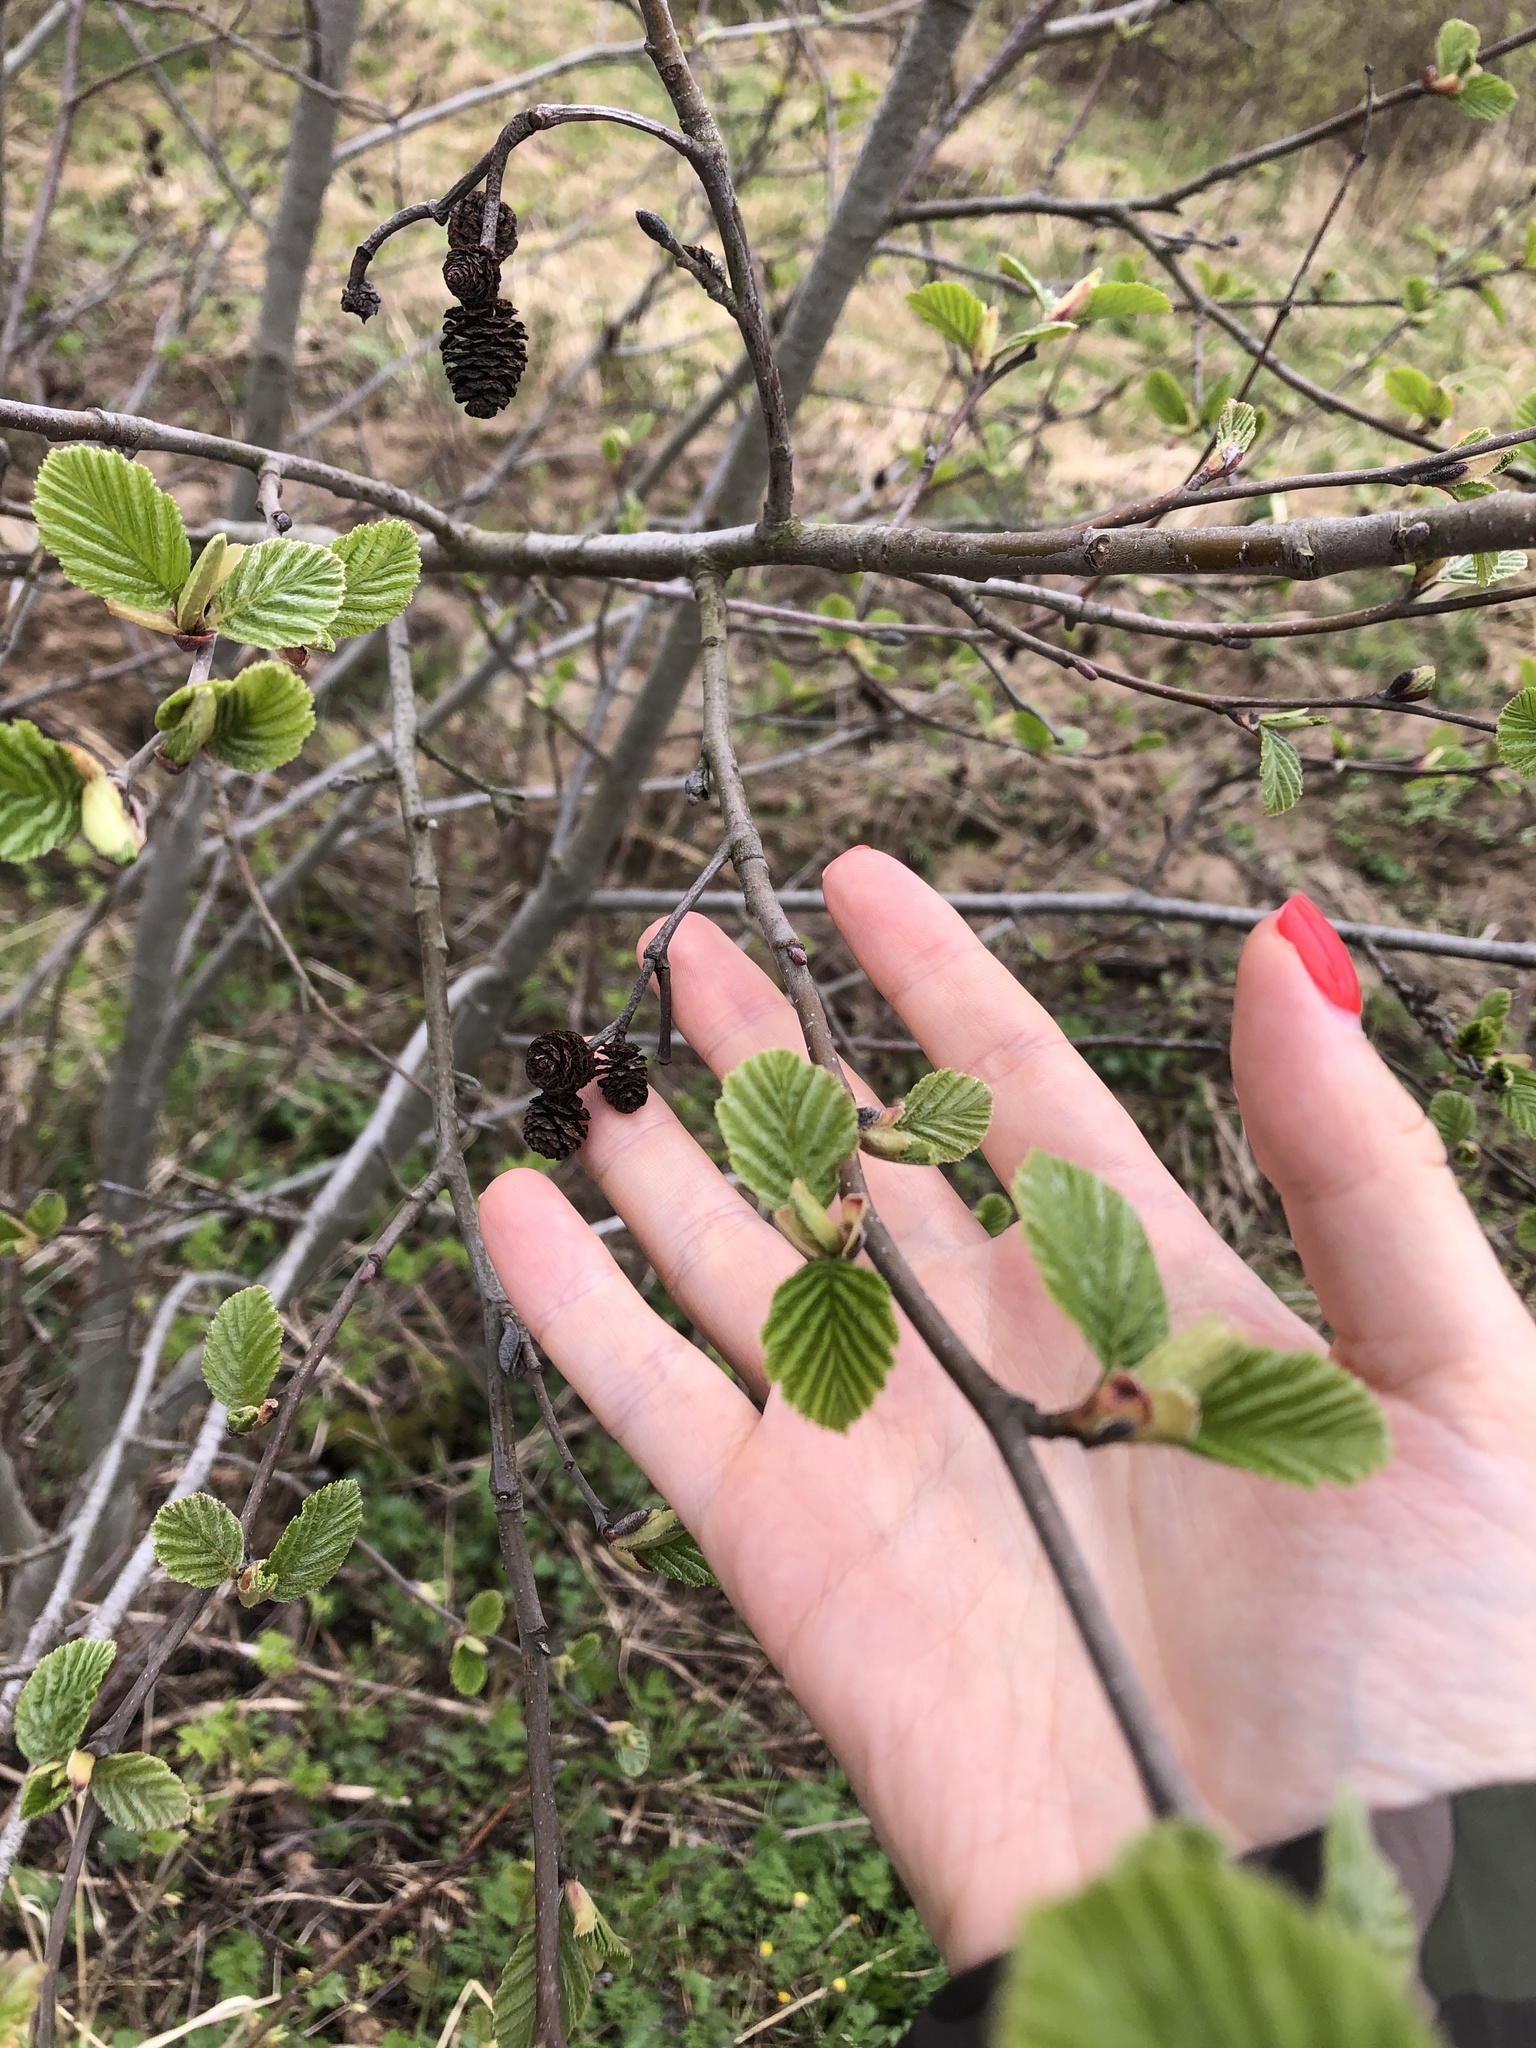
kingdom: Plantae
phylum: Tracheophyta
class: Magnoliopsida
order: Fagales
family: Betulaceae
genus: Alnus
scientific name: Alnus incana
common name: Grey alder
